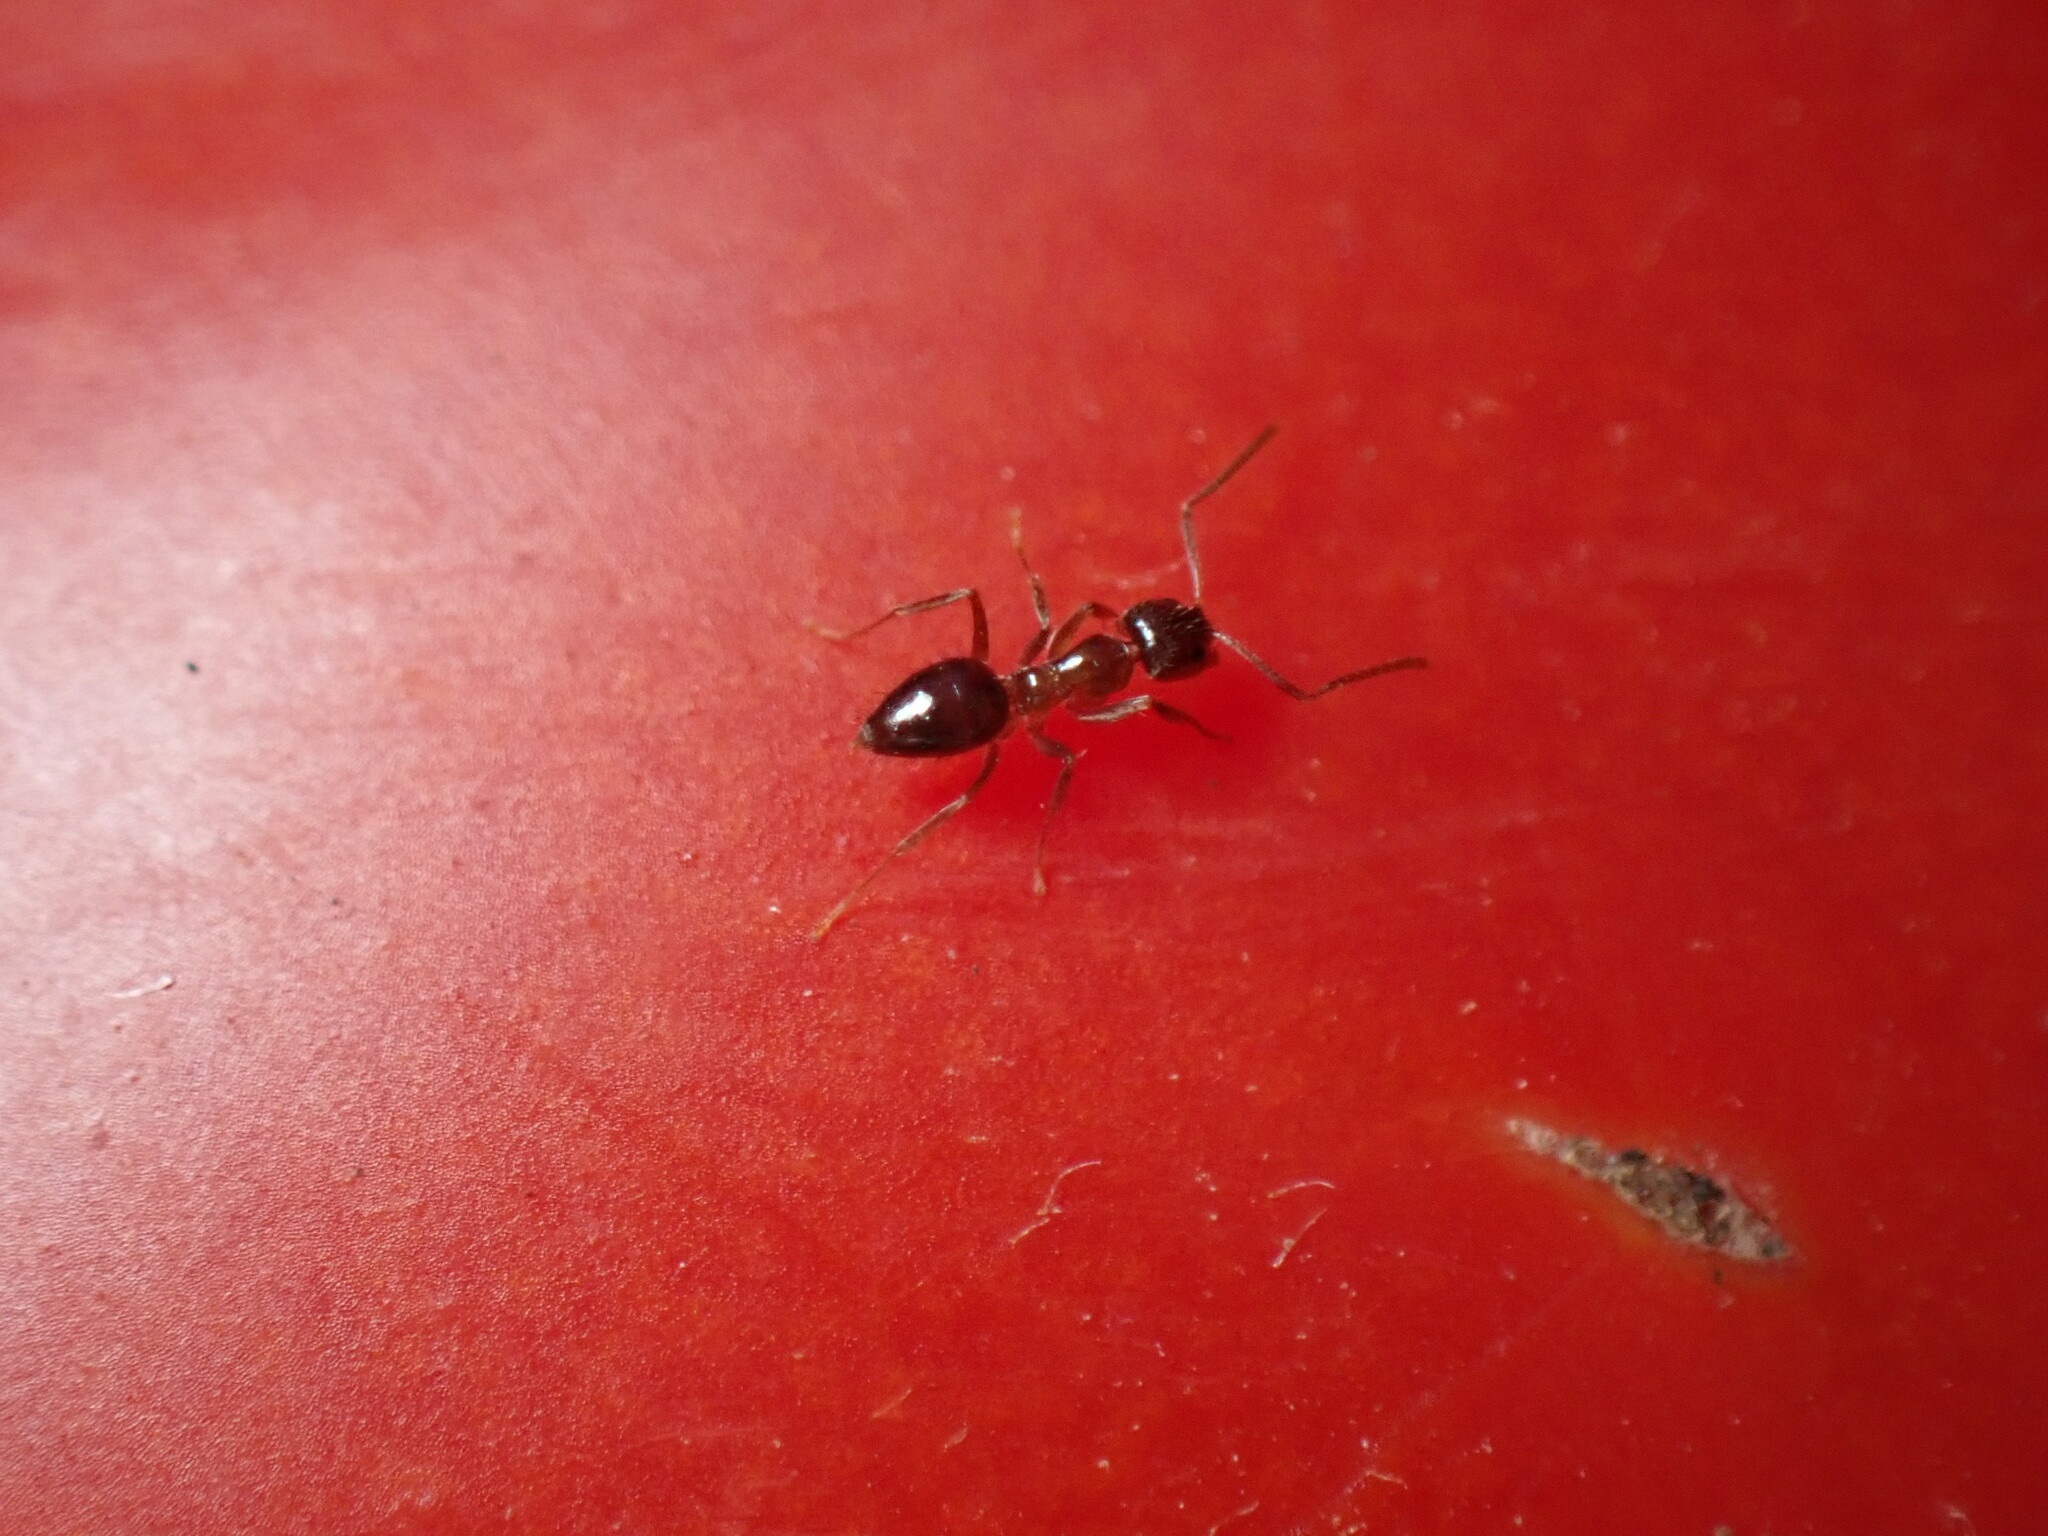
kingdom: Animalia
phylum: Arthropoda
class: Insecta
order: Hymenoptera
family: Formicidae
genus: Paratrechina
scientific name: Paratrechina jaegerskioeldi
